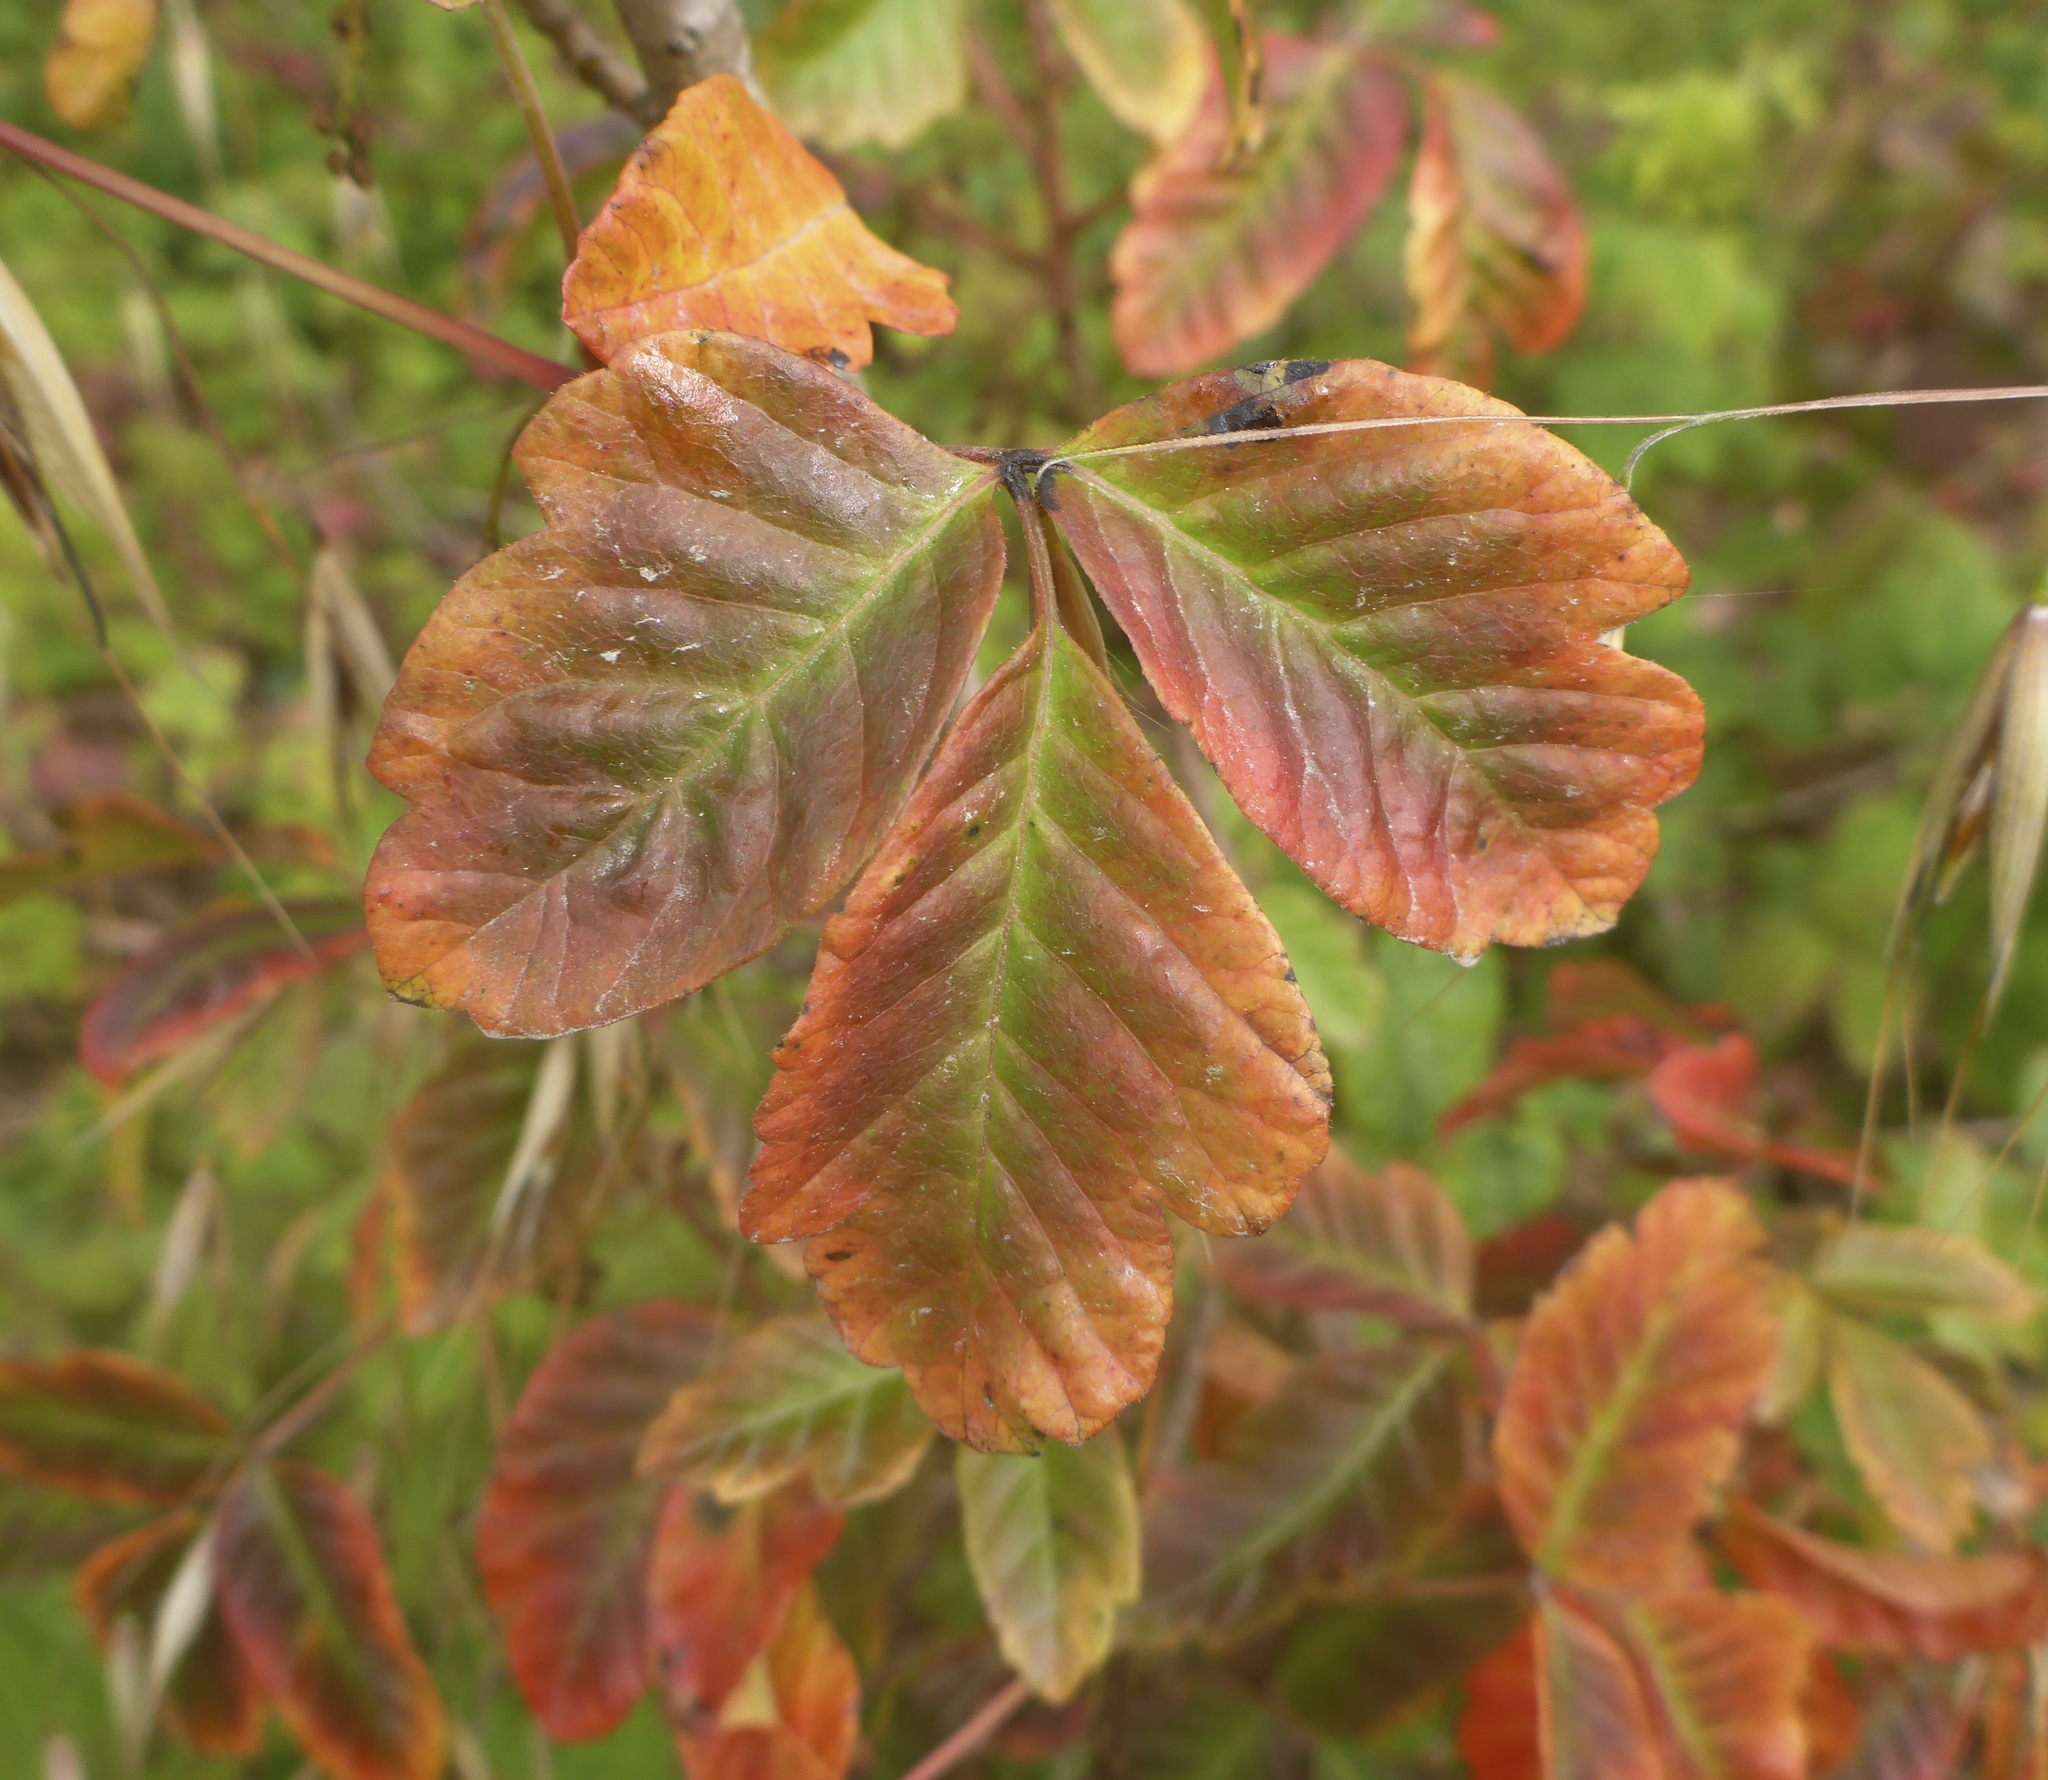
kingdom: Plantae
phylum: Tracheophyta
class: Magnoliopsida
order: Sapindales
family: Anacardiaceae
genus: Toxicodendron
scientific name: Toxicodendron diversilobum
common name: Pacific poison-oak
